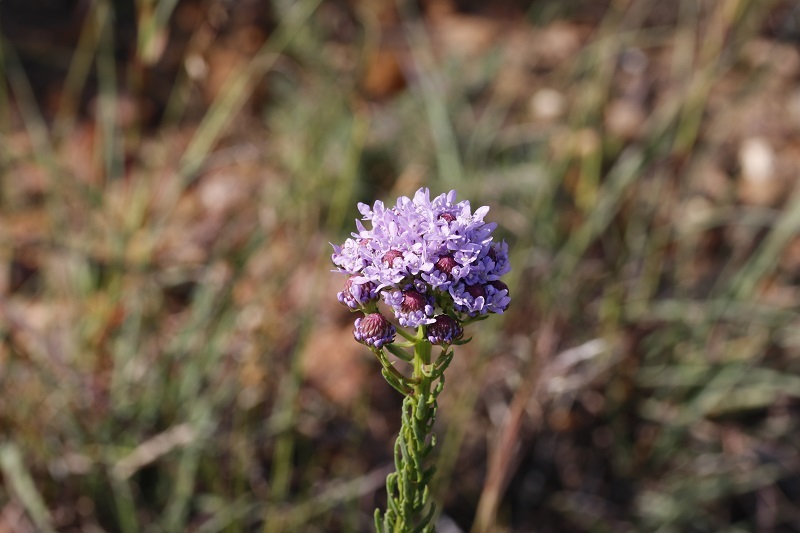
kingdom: Plantae
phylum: Tracheophyta
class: Magnoliopsida
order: Lamiales
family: Scrophulariaceae
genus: Pseudoselago
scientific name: Pseudoselago spuria
